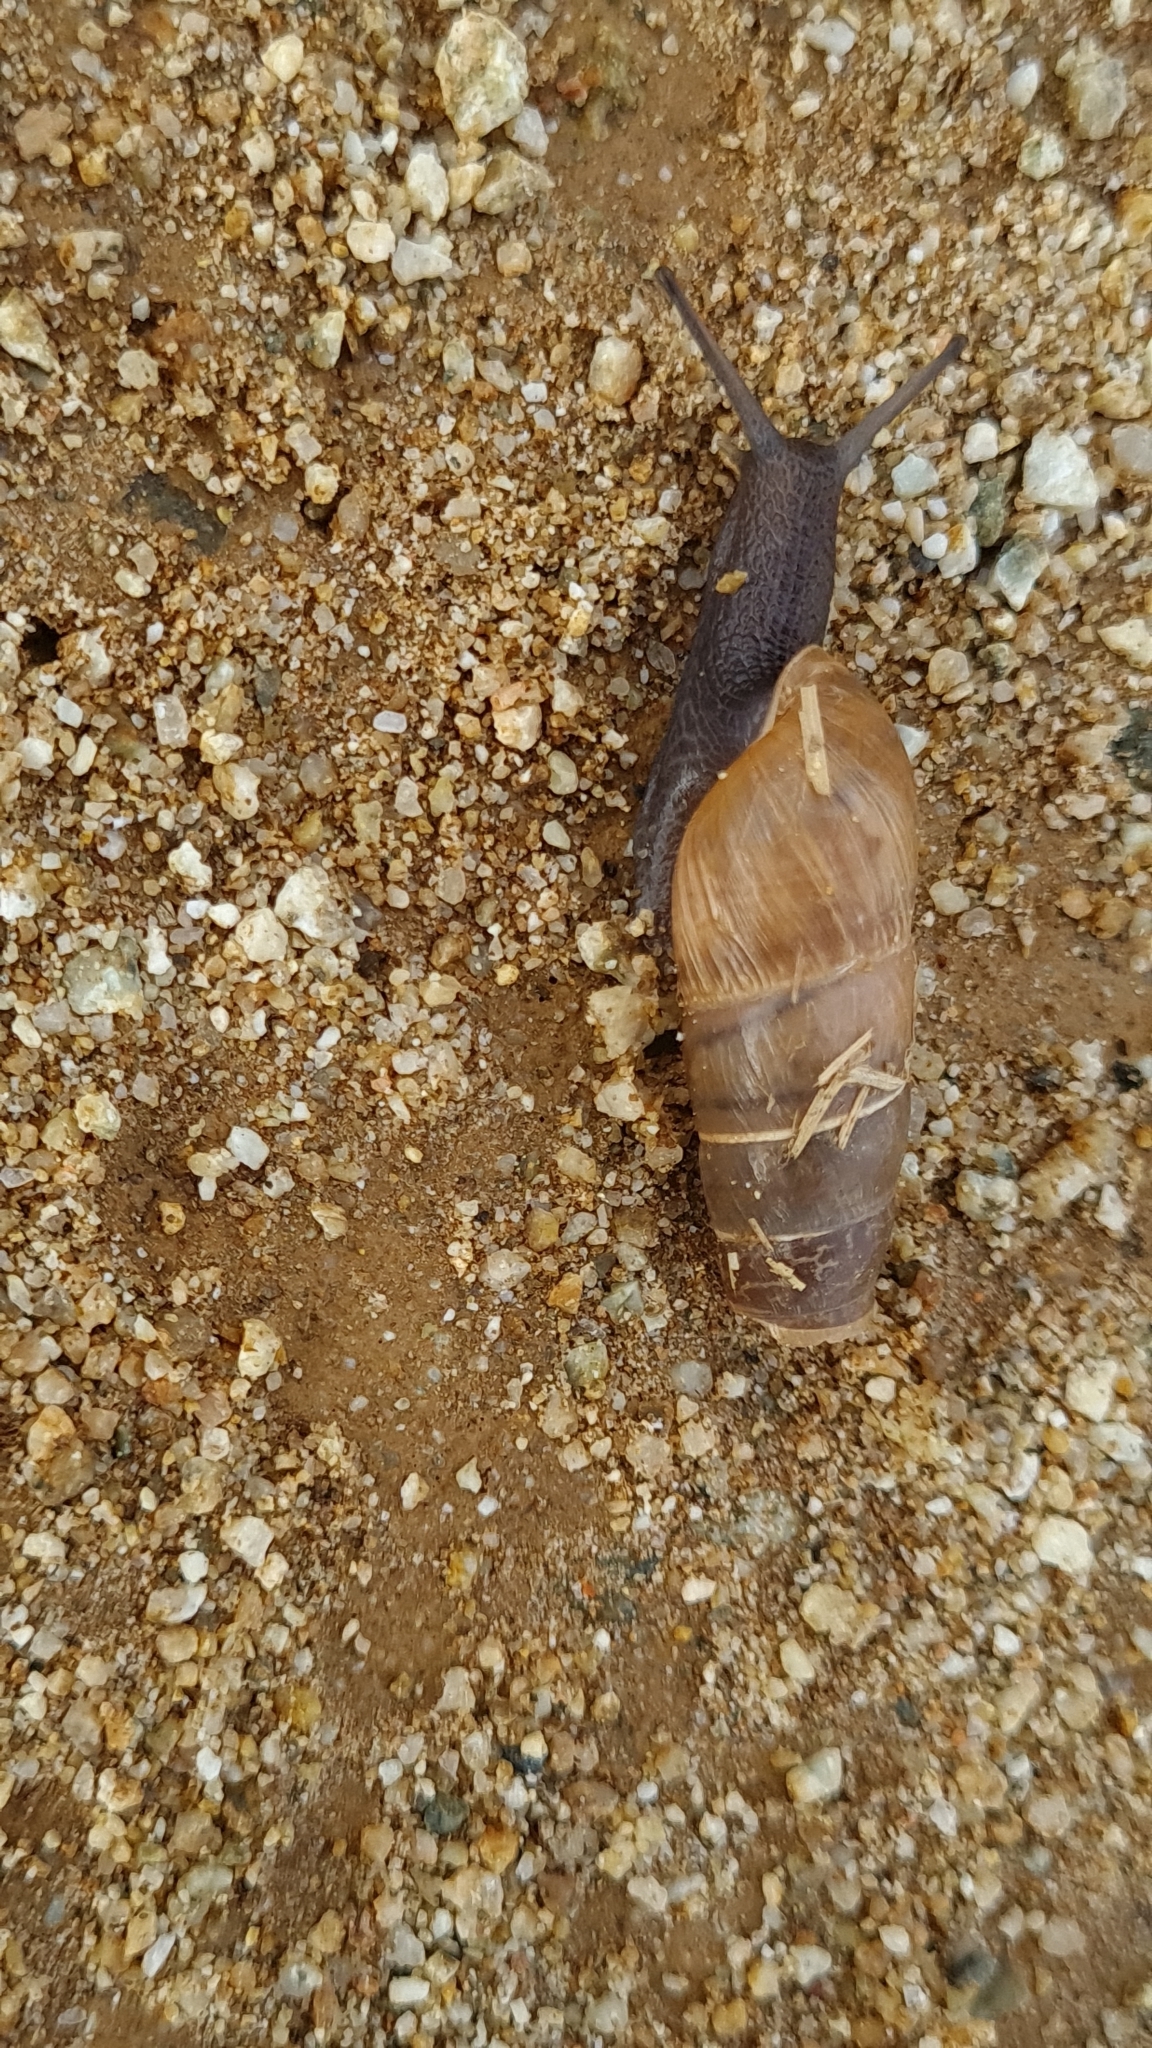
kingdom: Animalia
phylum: Mollusca
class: Gastropoda
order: Stylommatophora
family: Achatinidae
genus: Rumina
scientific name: Rumina decollata
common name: Decollate snail
